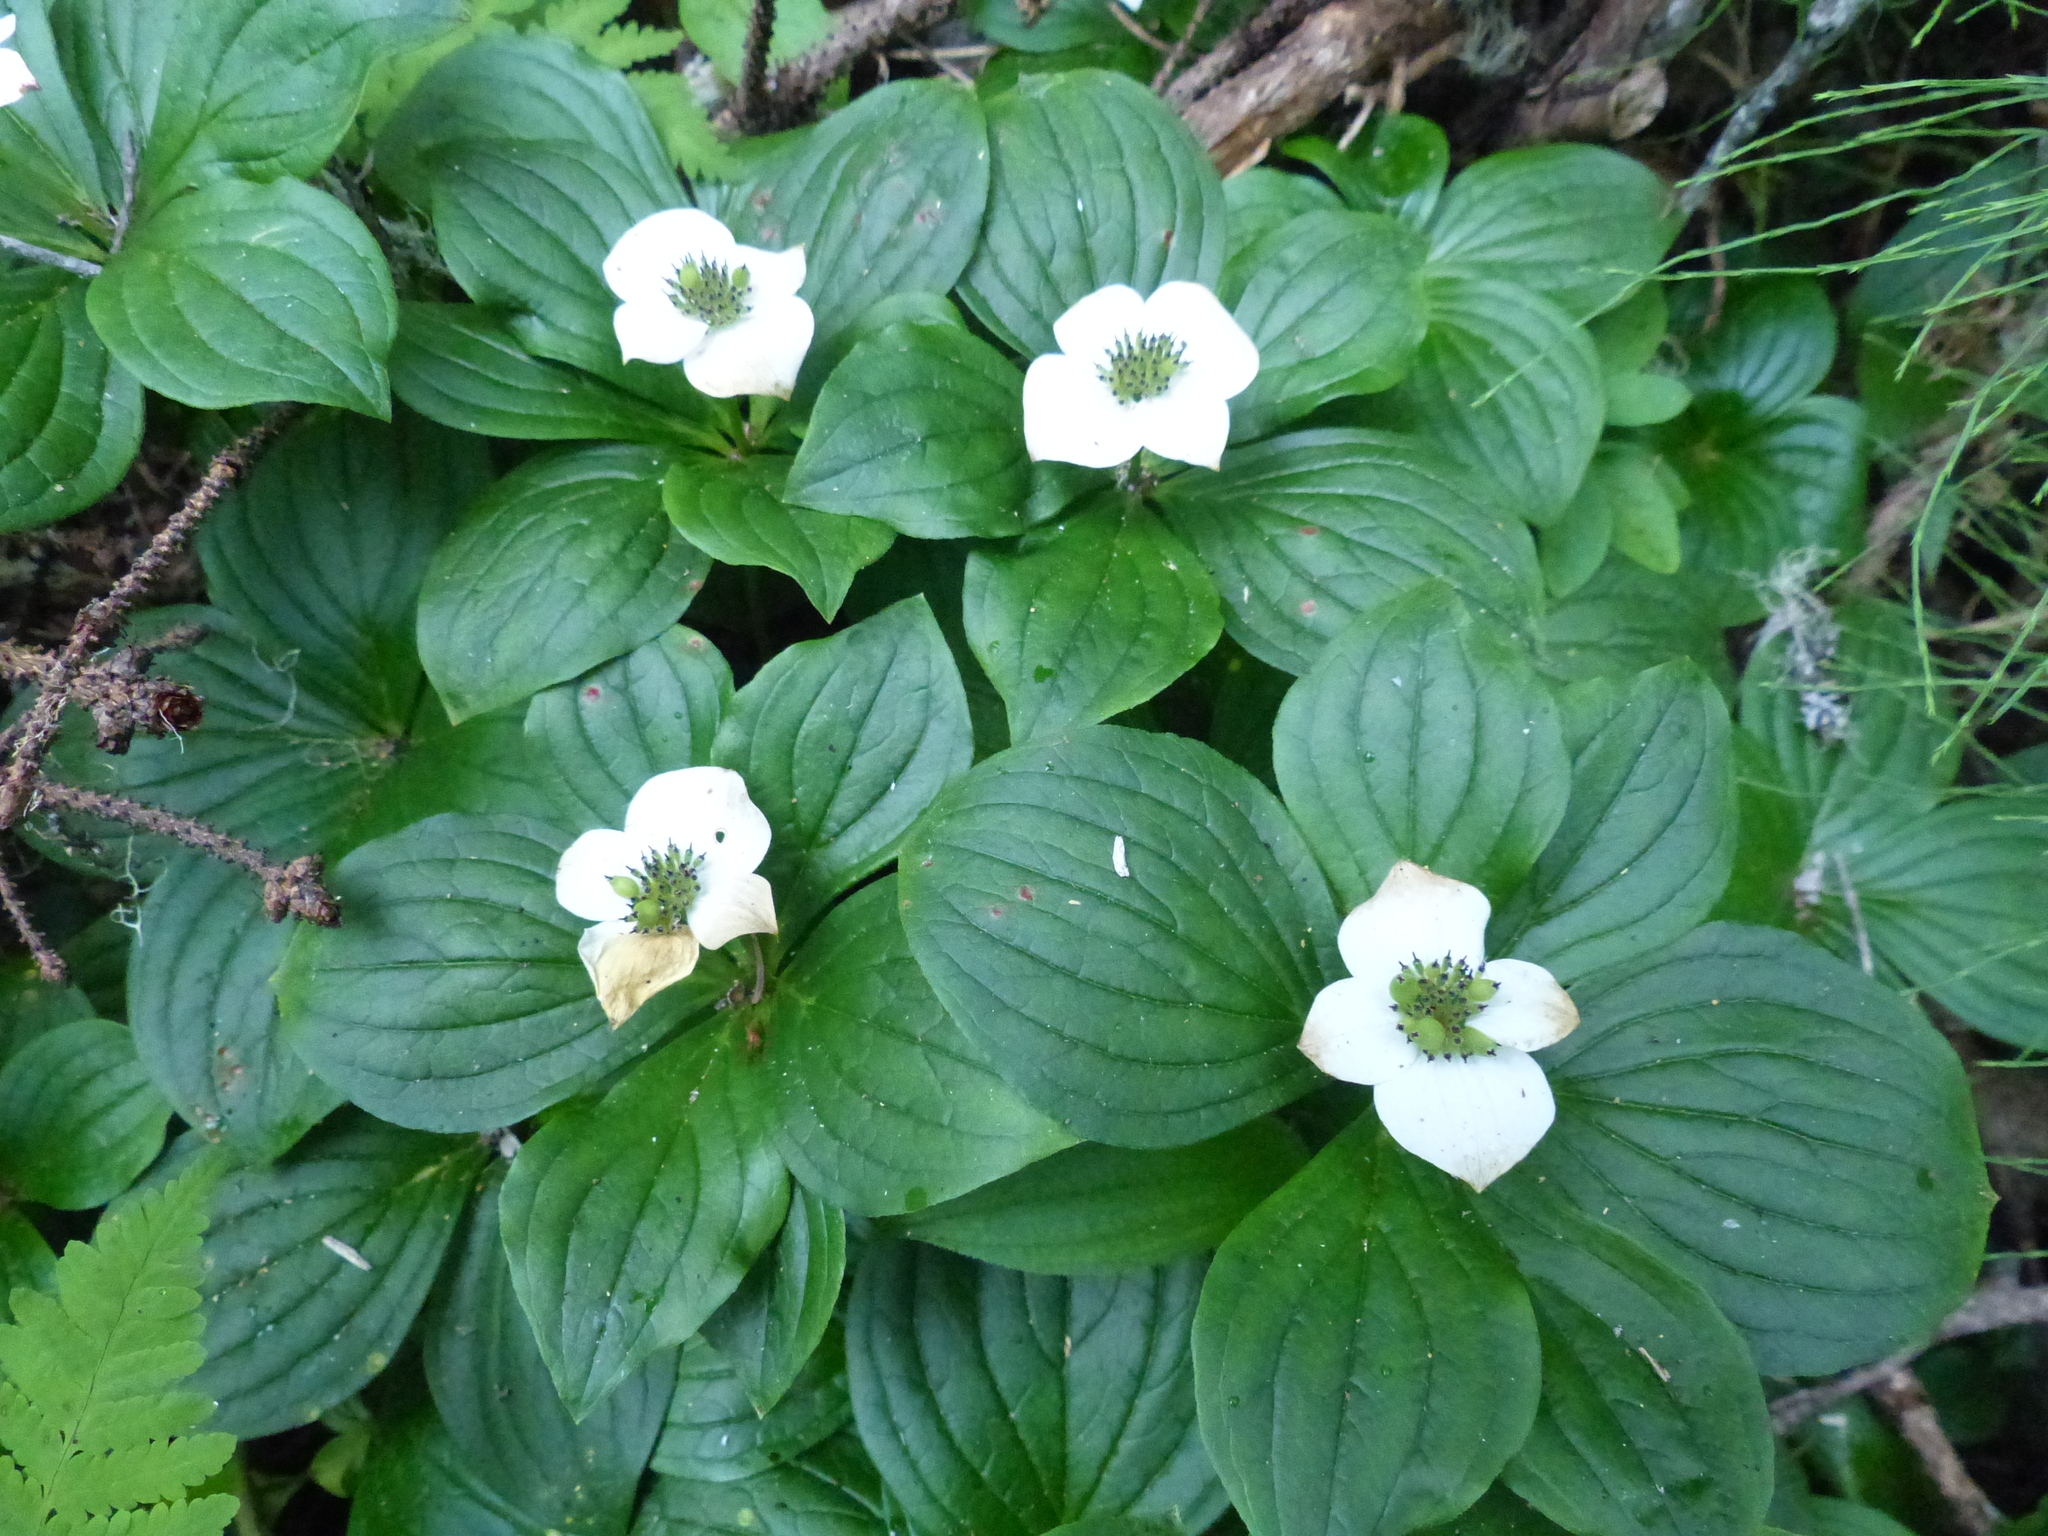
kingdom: Plantae
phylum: Tracheophyta
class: Magnoliopsida
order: Cornales
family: Cornaceae
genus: Cornus
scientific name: Cornus unalaschkensis
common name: Alaska bunchberry
